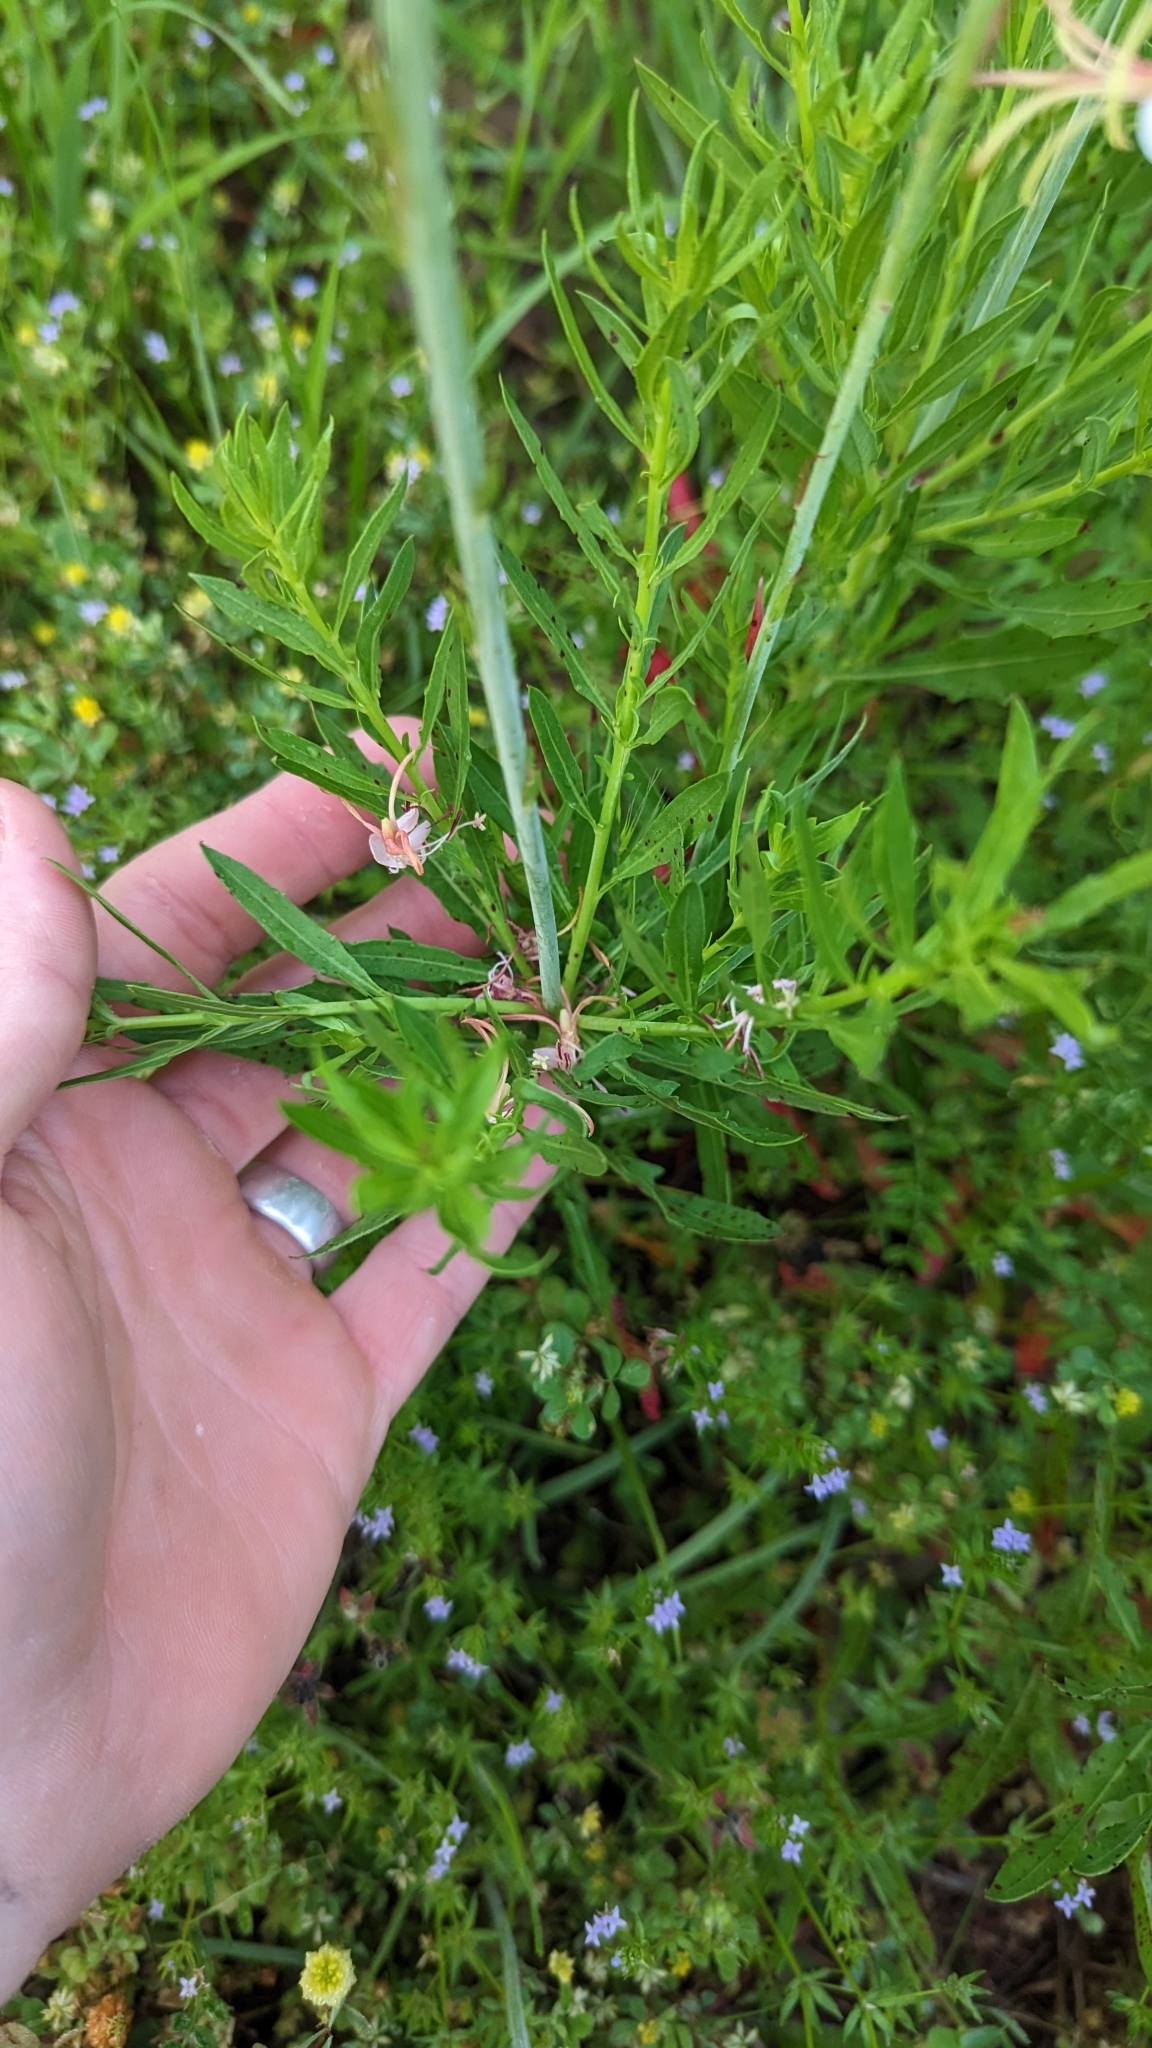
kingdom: Plantae
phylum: Tracheophyta
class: Magnoliopsida
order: Myrtales
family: Onagraceae
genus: Oenothera
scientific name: Oenothera suffulta
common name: Kisses
